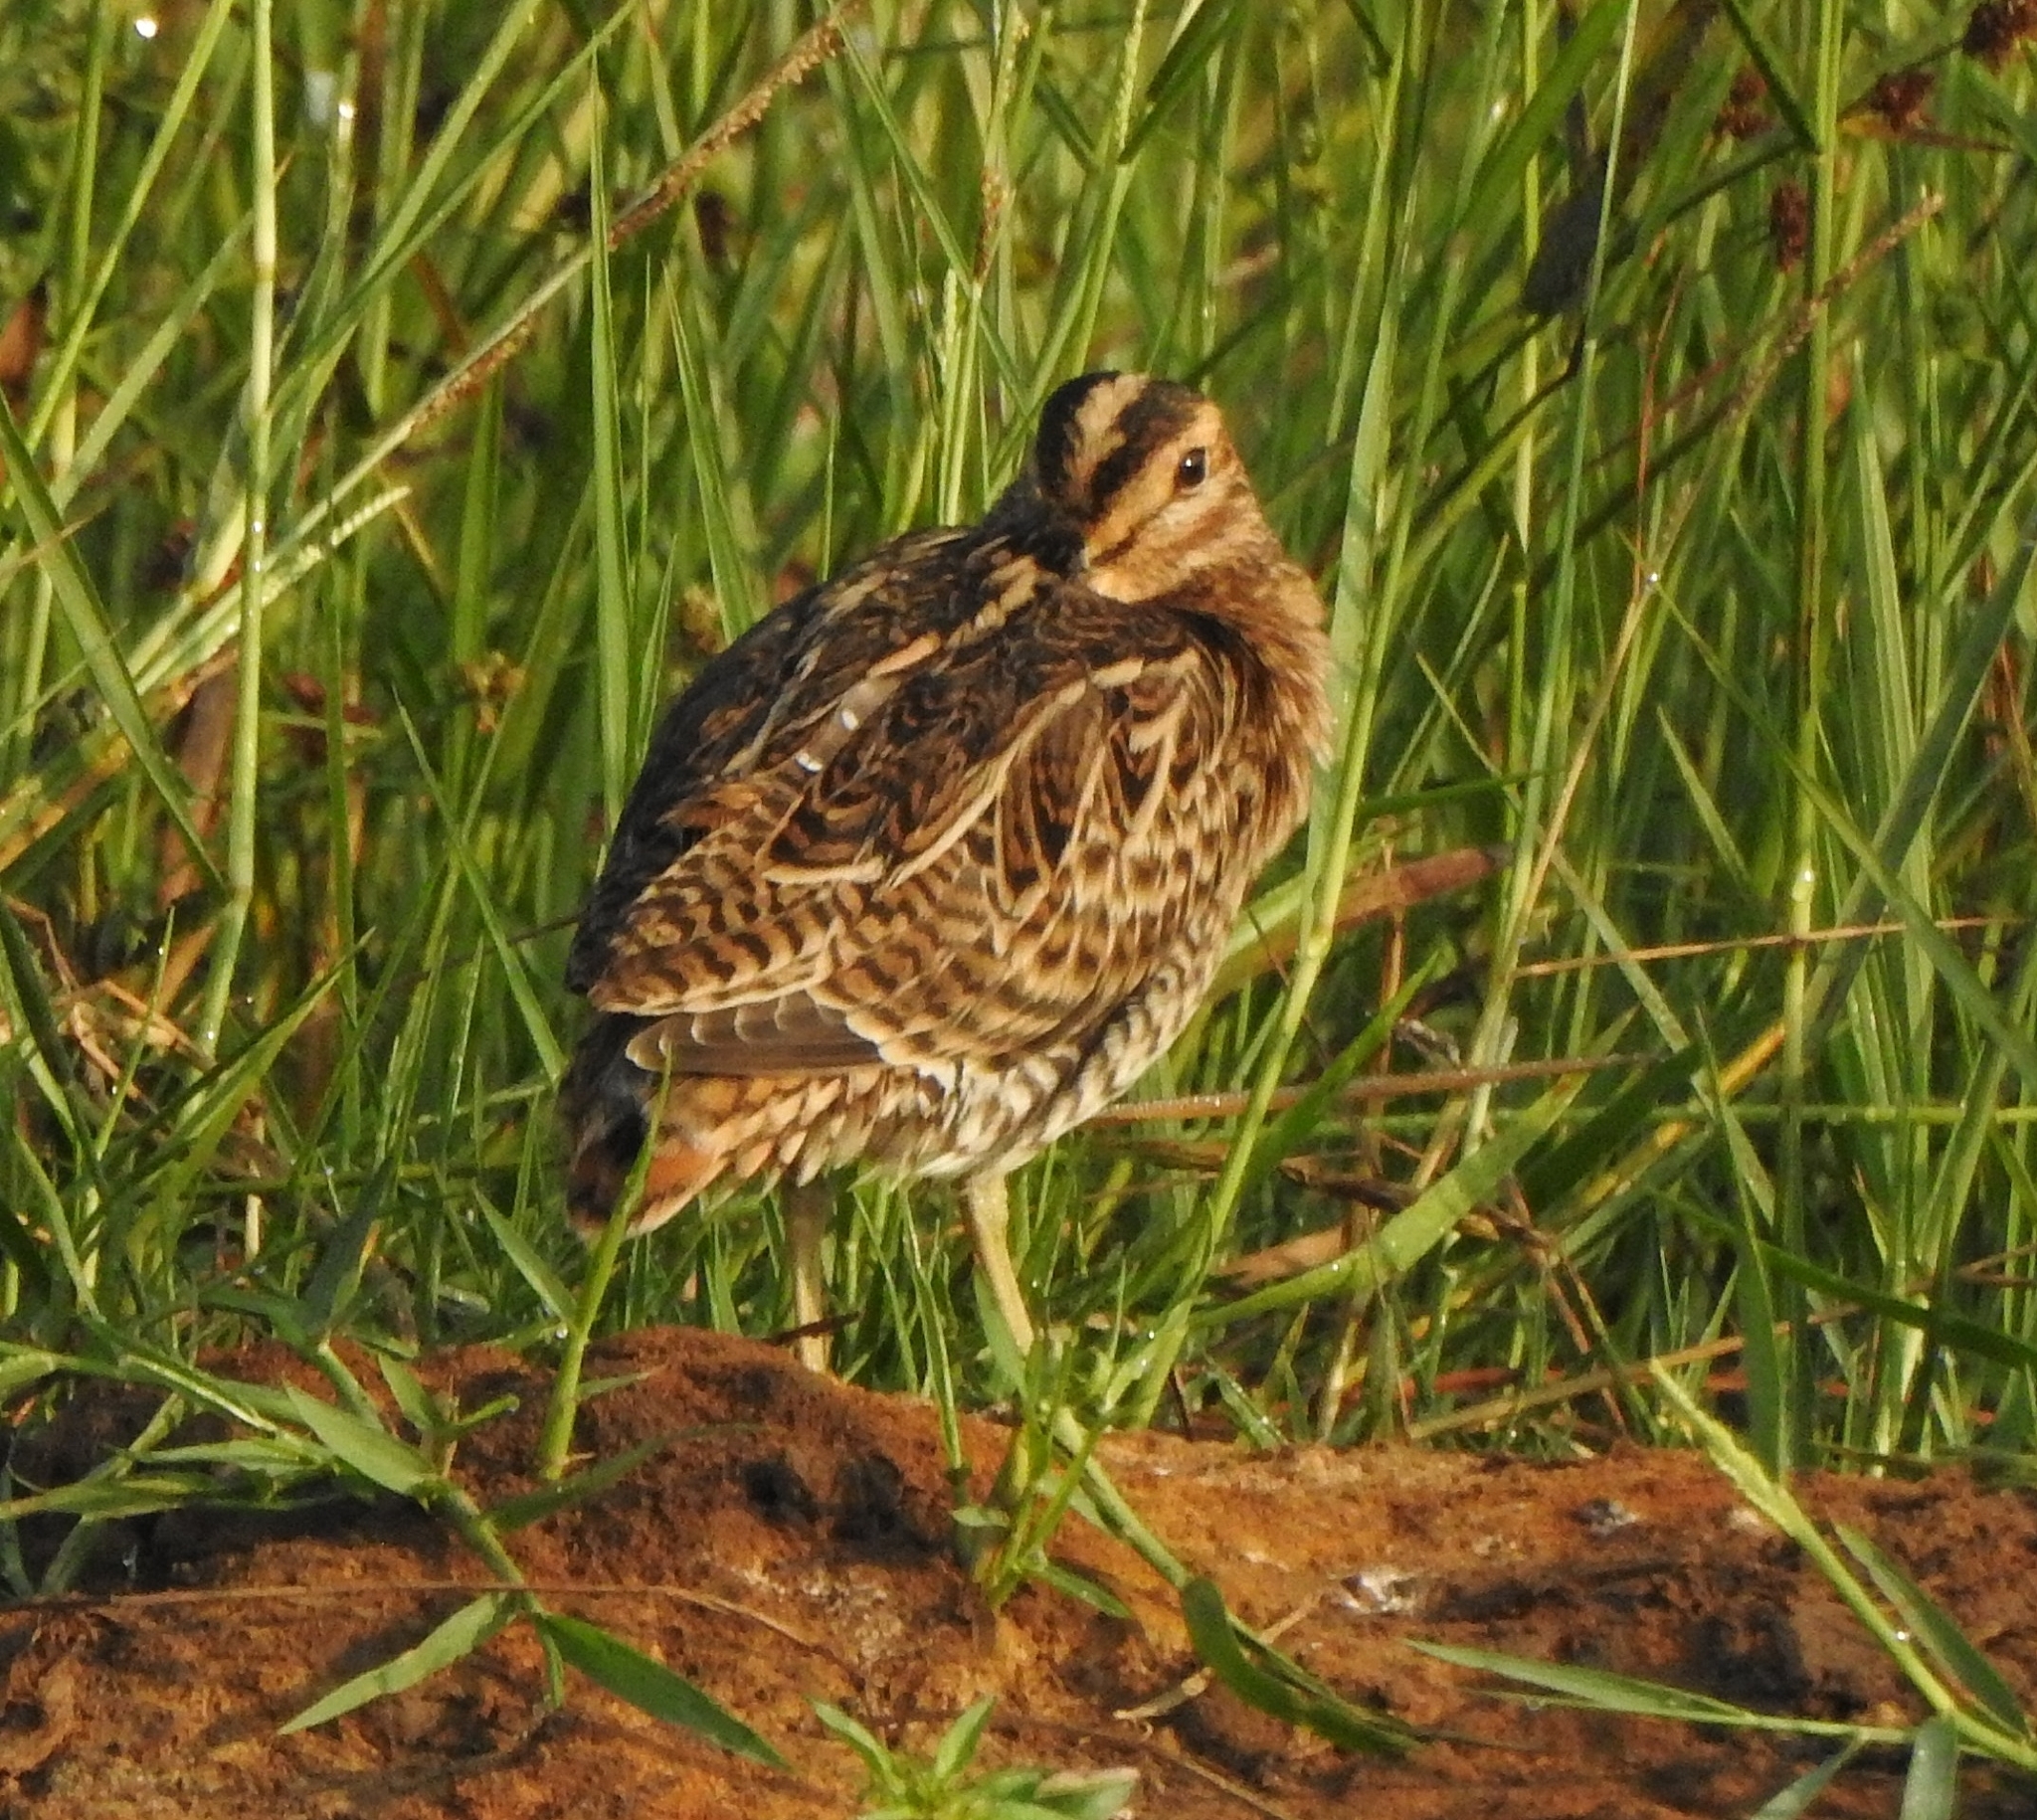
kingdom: Animalia
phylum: Chordata
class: Aves
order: Charadriiformes
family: Scolopacidae
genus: Gallinago
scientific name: Gallinago stenura
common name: Pin-tailed snipe
